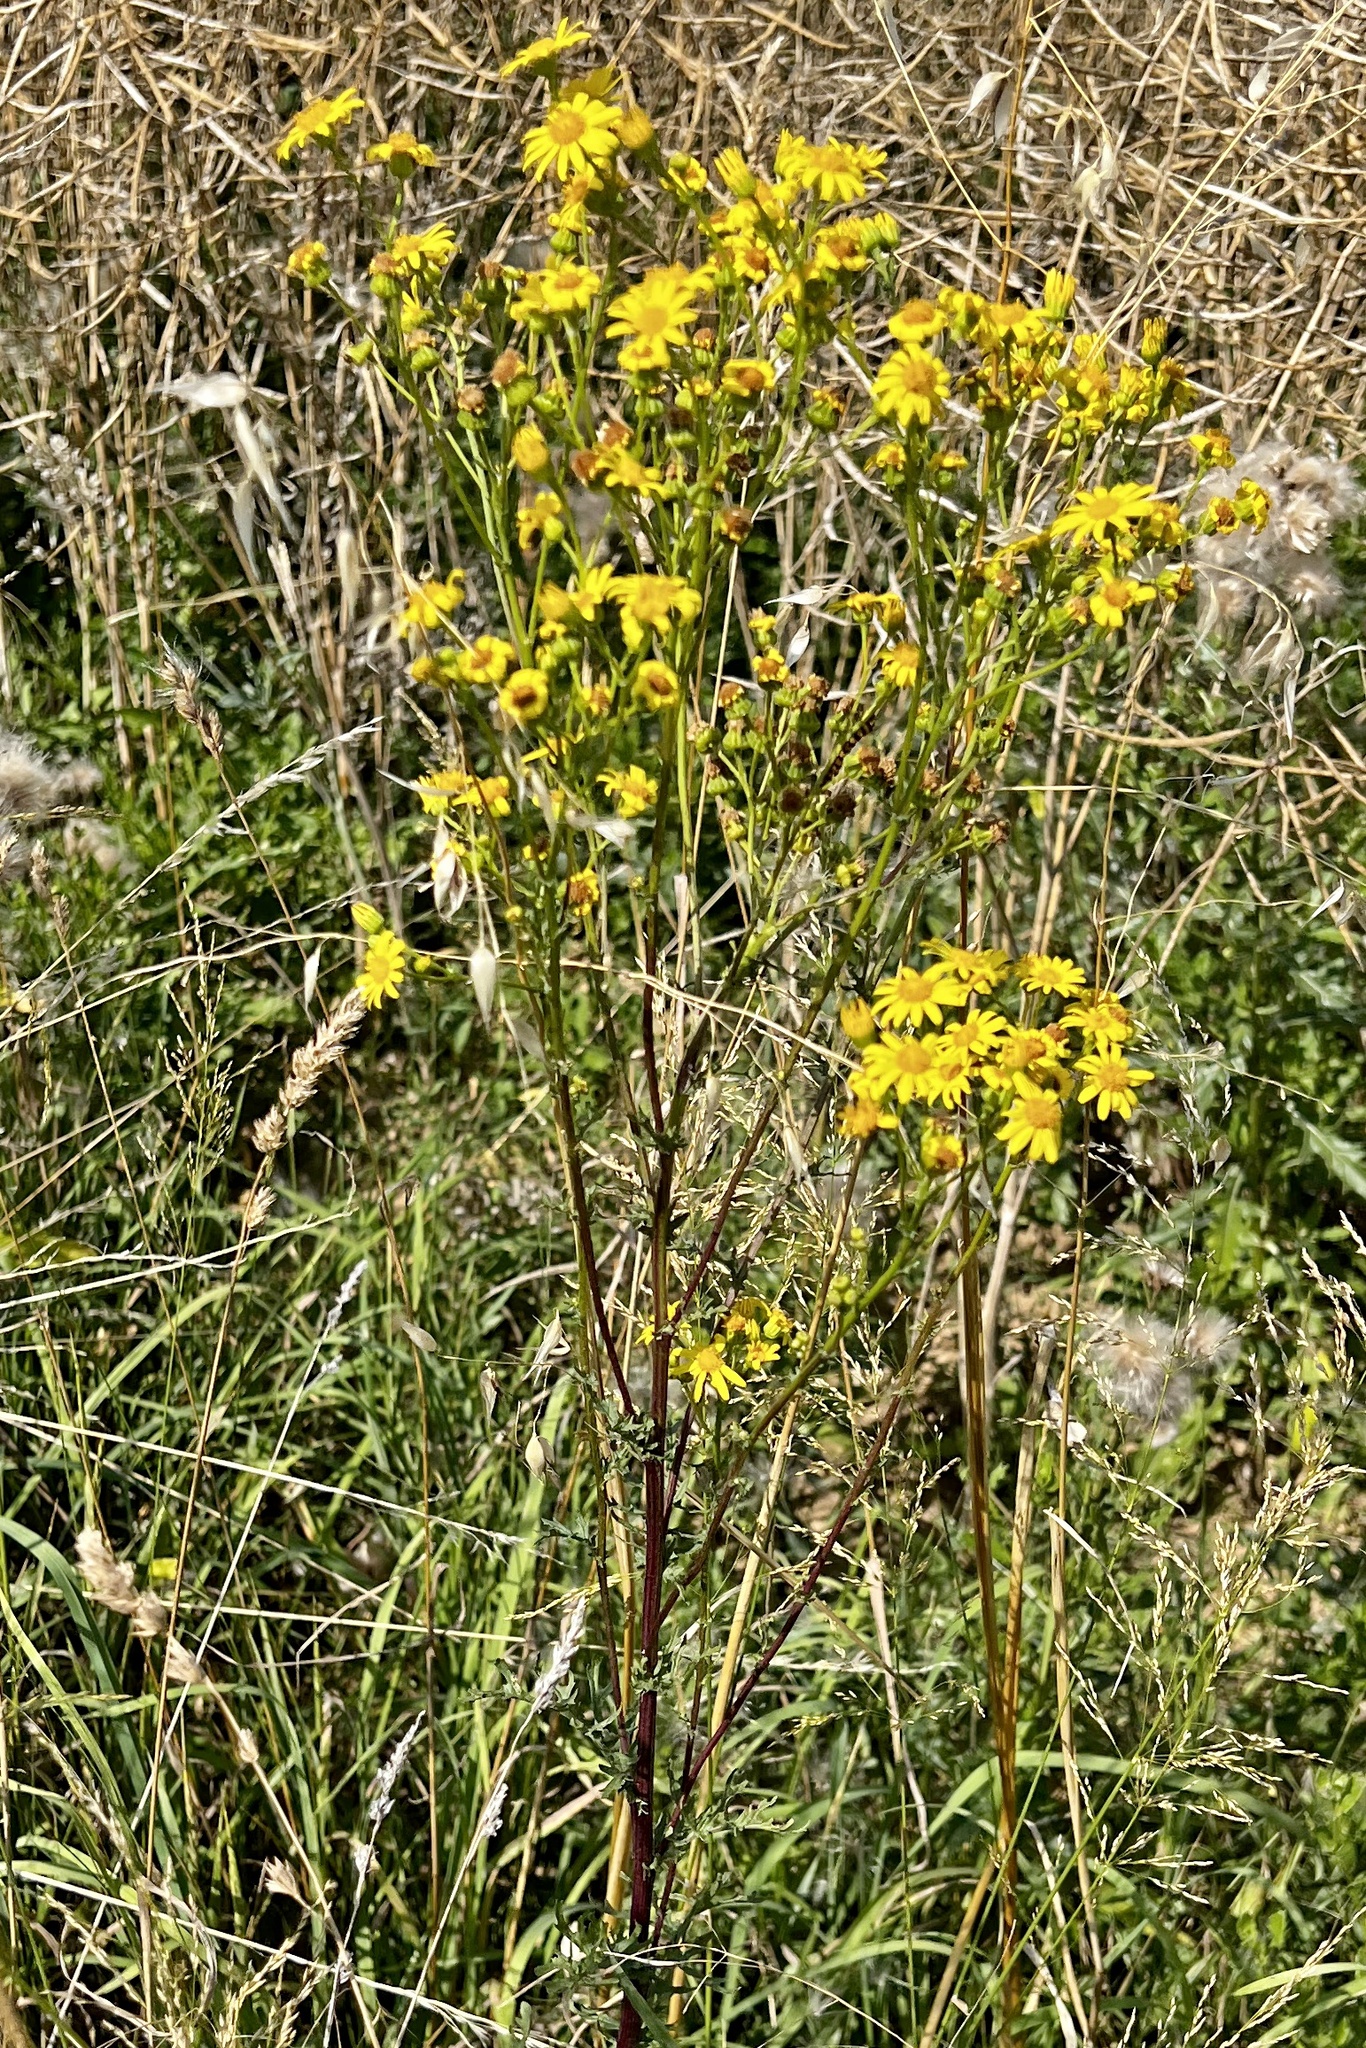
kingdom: Plantae
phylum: Tracheophyta
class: Magnoliopsida
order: Asterales
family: Asteraceae
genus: Jacobaea
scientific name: Jacobaea vulgaris
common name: Stinking willie
